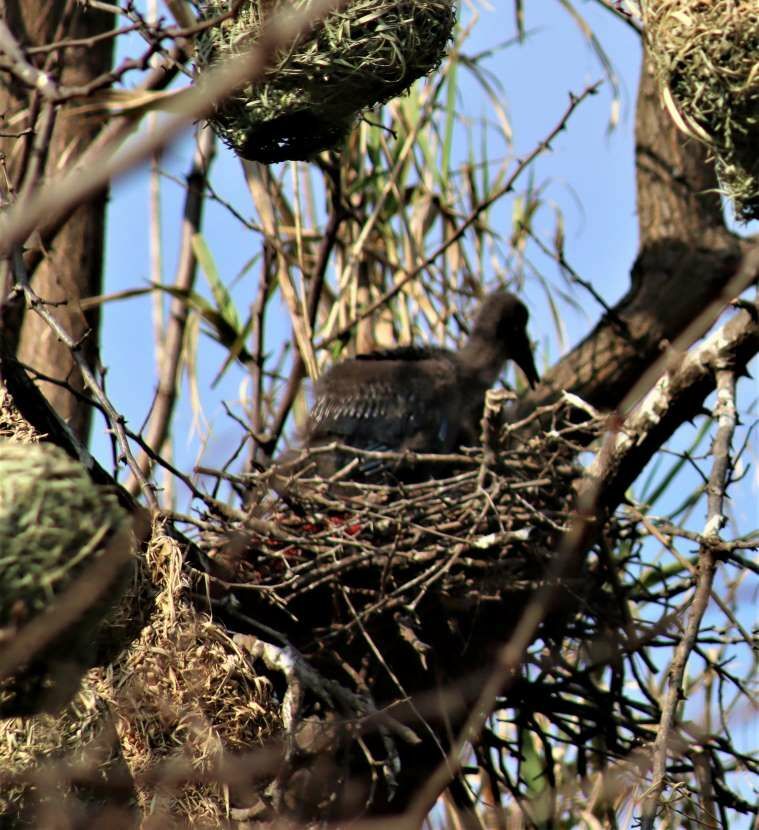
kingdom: Animalia
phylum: Chordata
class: Aves
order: Pelecaniformes
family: Threskiornithidae
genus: Bostrychia
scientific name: Bostrychia hagedash
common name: Hadada ibis
